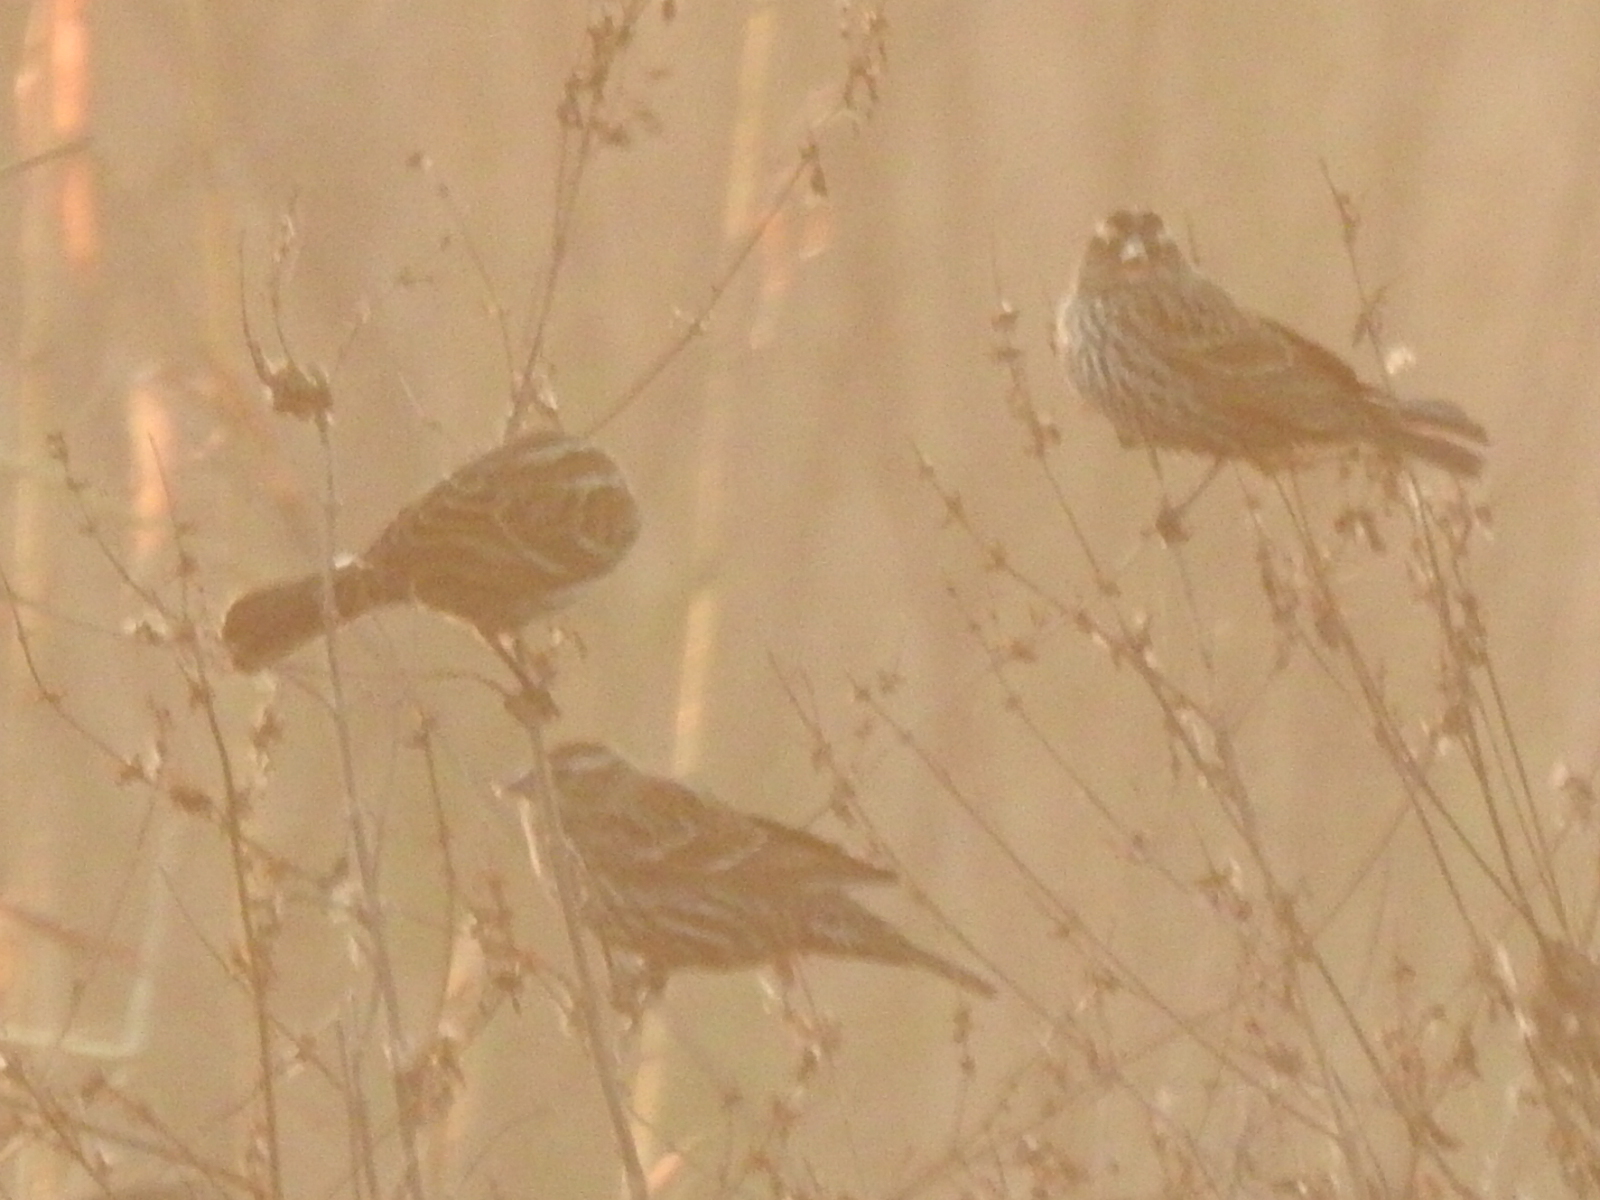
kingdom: Animalia
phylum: Chordata
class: Aves
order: Passeriformes
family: Icteridae
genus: Agelaius
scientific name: Agelaius phoeniceus
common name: Red-winged blackbird
